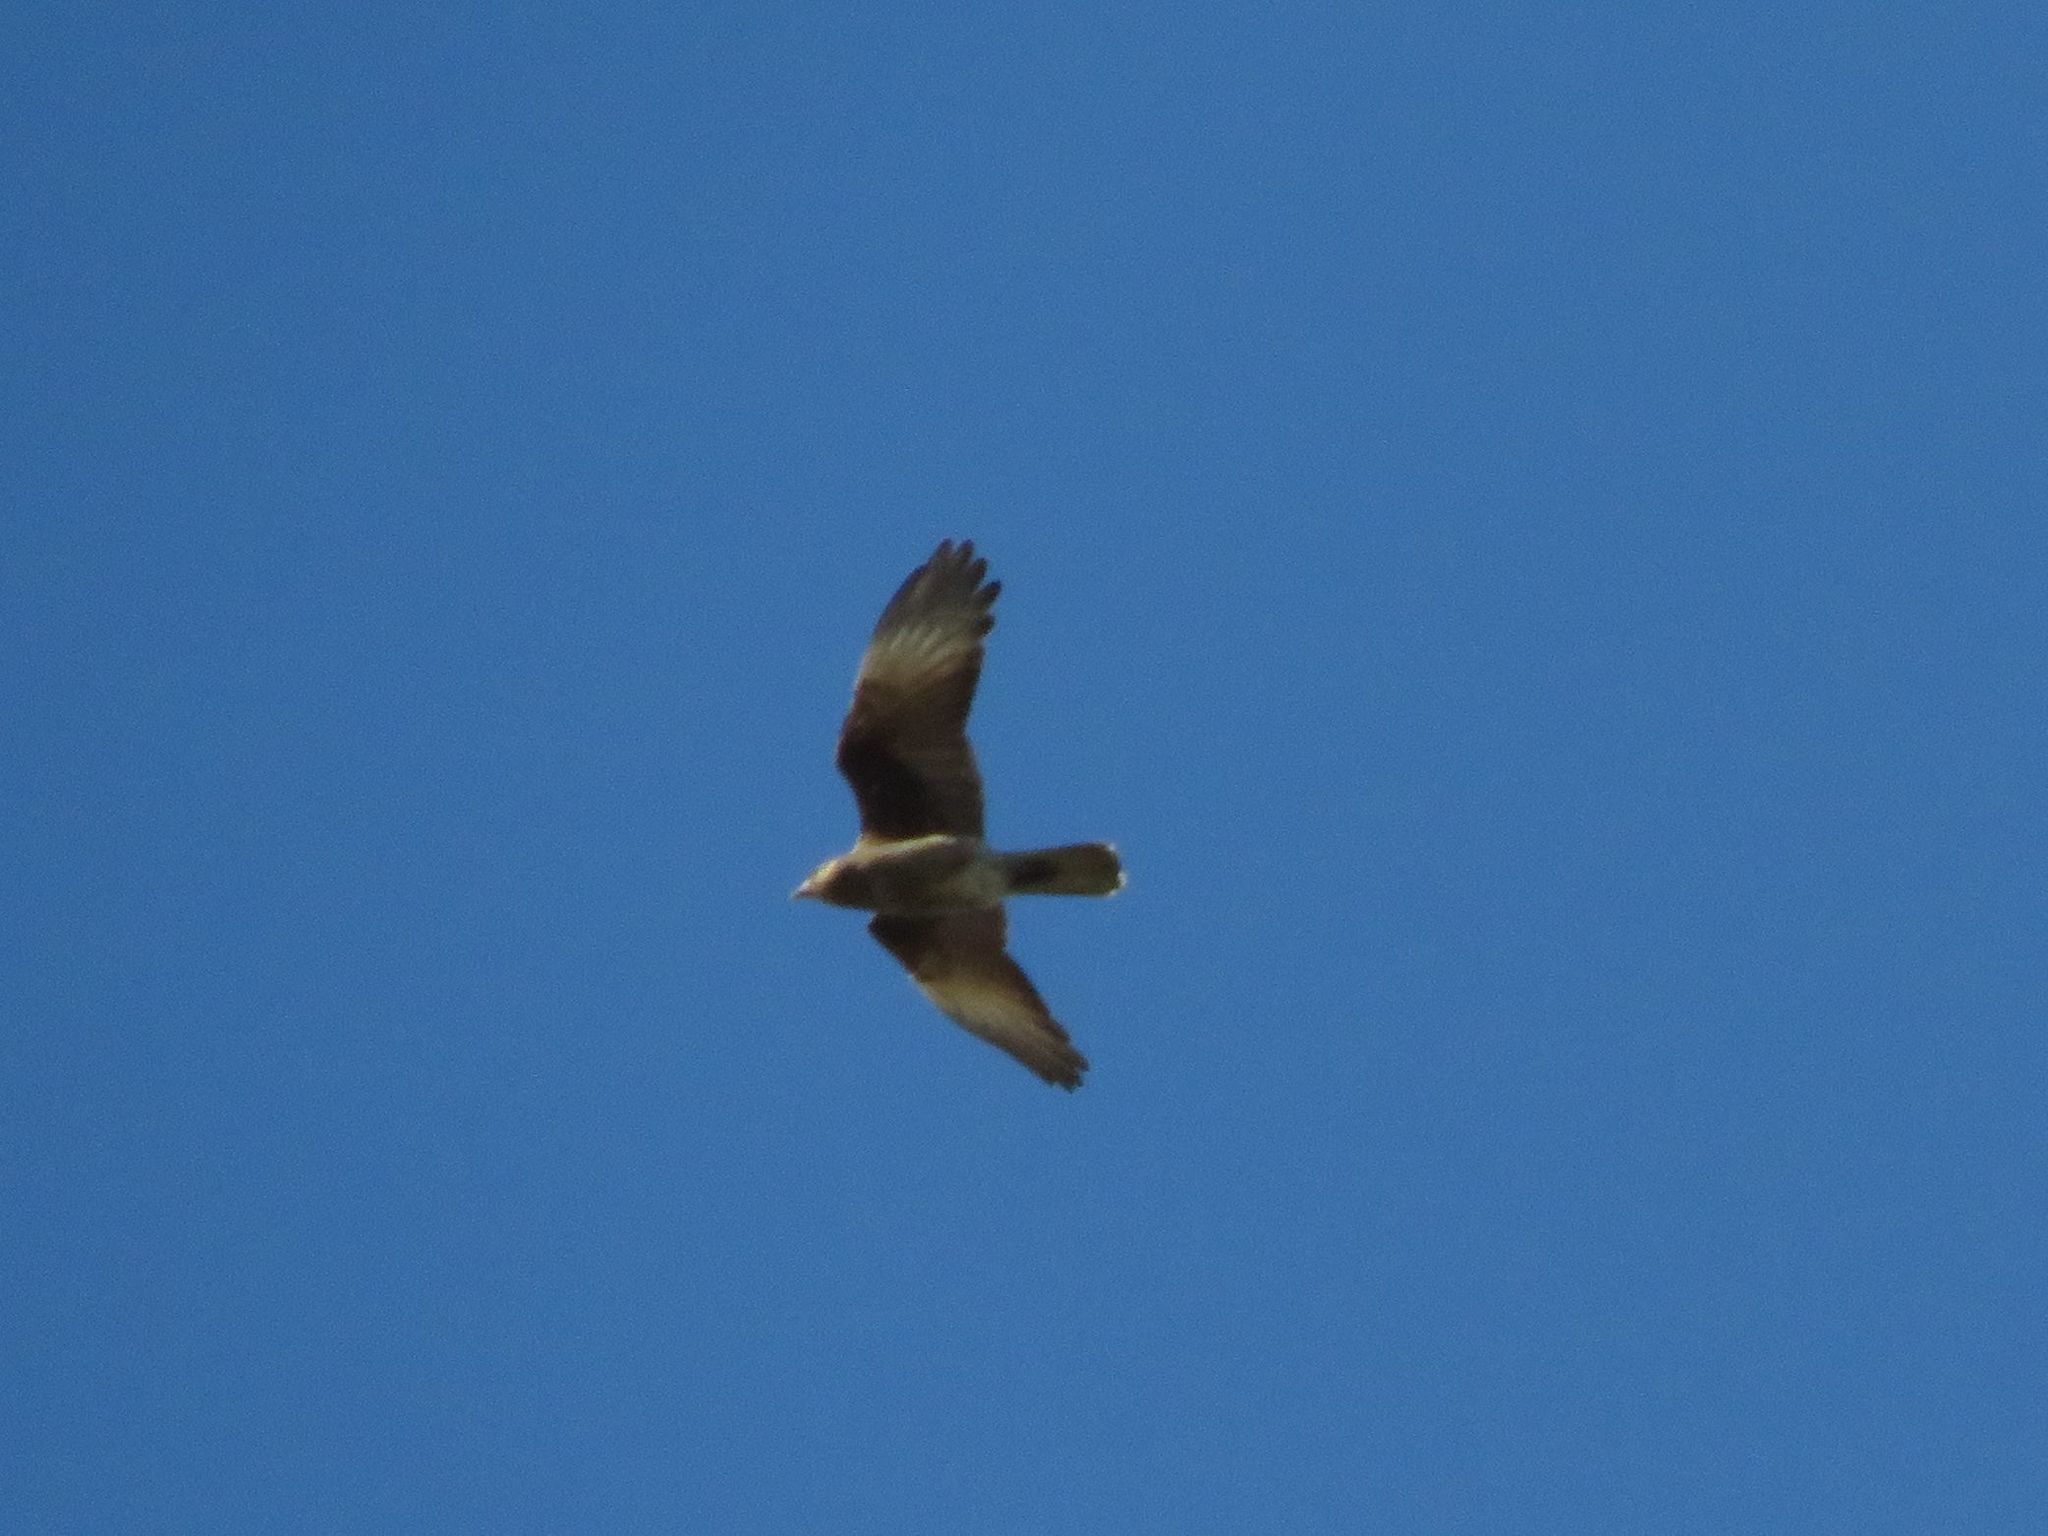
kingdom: Animalia
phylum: Chordata
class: Aves
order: Falconiformes
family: Falconidae
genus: Daptrius
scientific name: Daptrius
